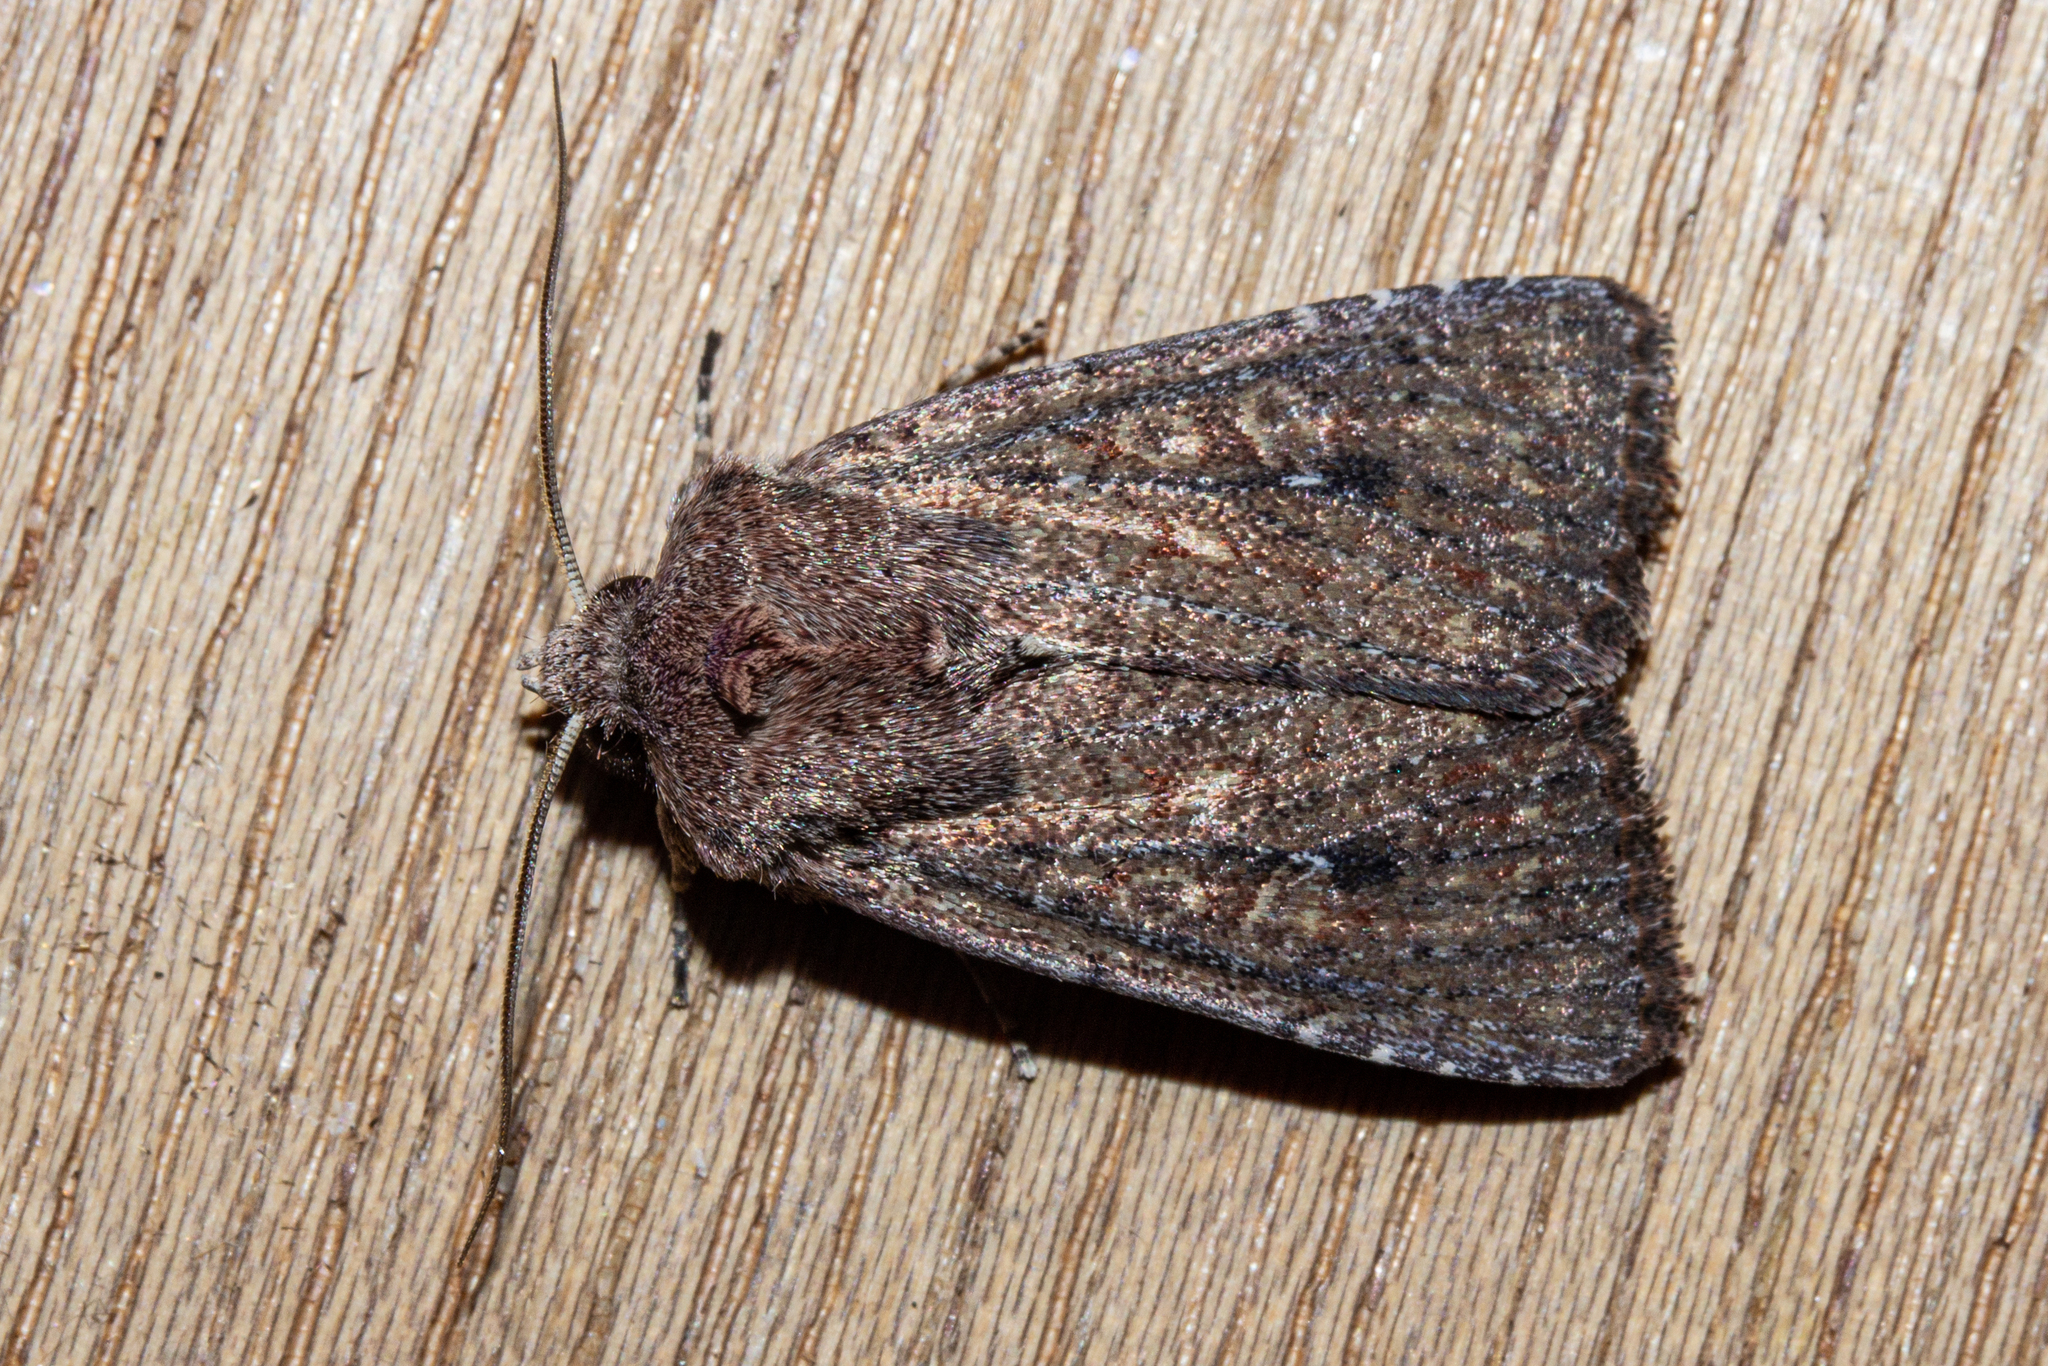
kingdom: Animalia
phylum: Arthropoda
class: Insecta
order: Lepidoptera
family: Noctuidae
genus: Ichneutica
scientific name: Ichneutica
